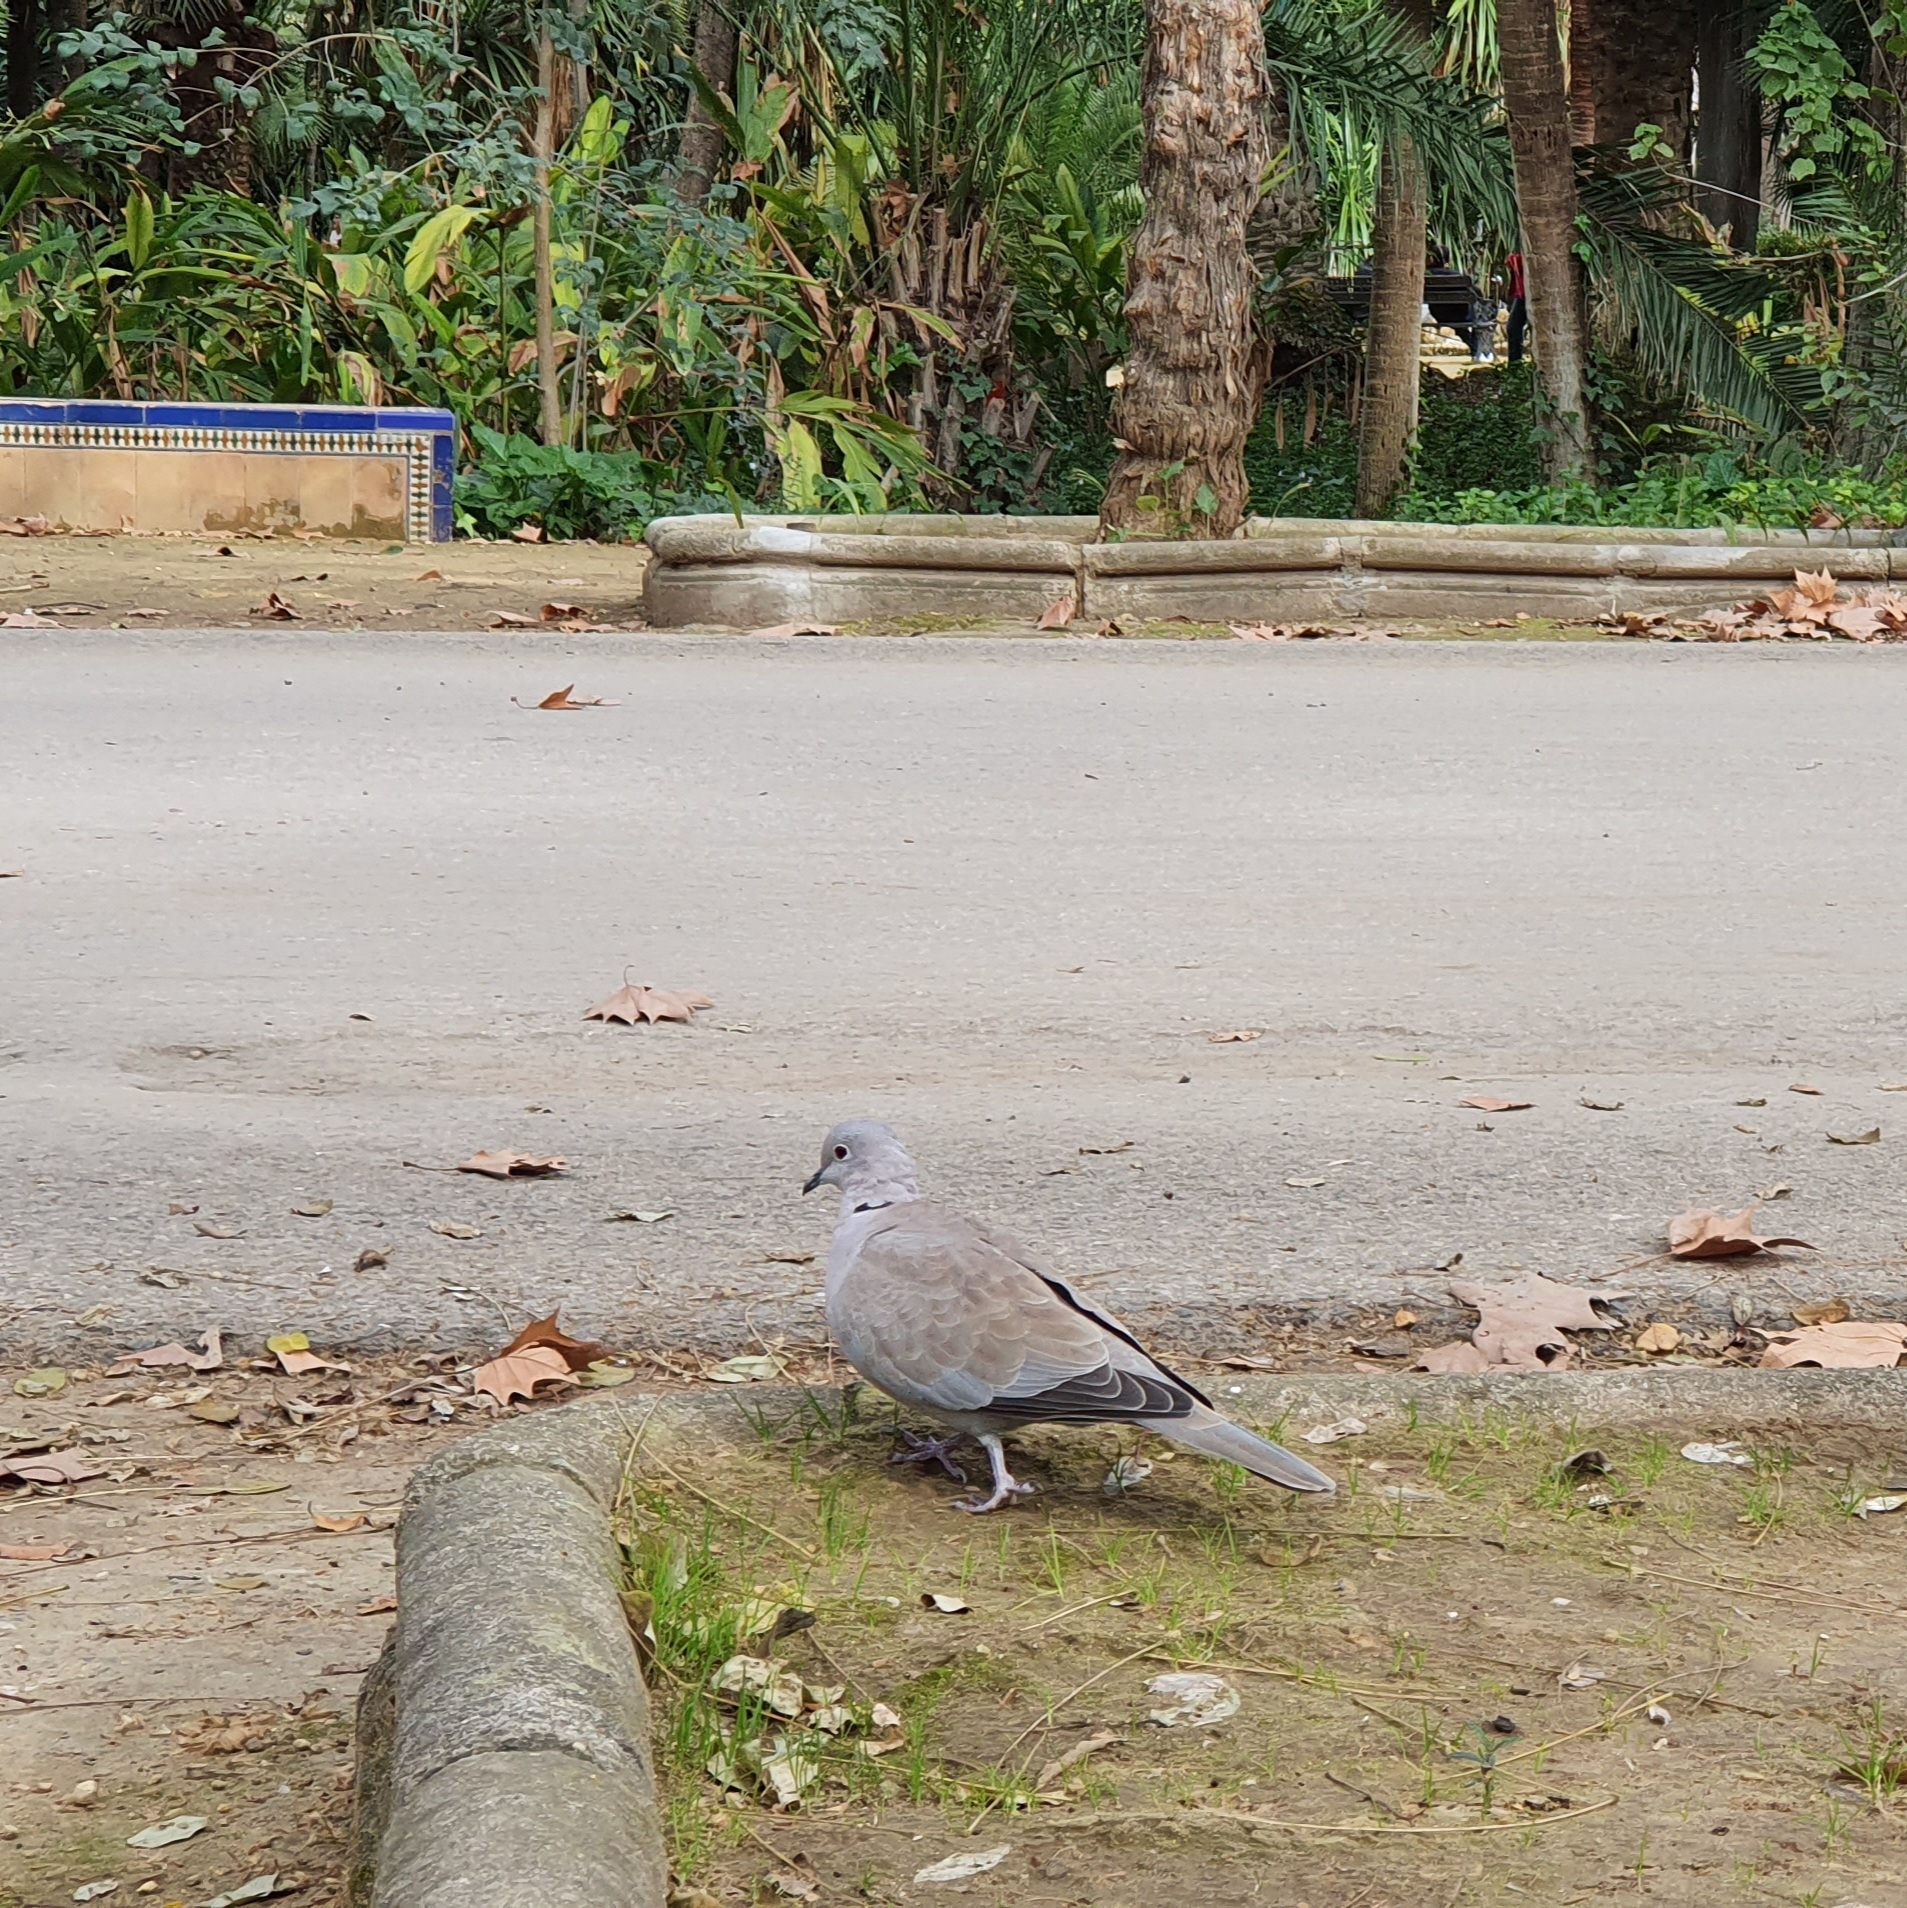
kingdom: Animalia
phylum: Chordata
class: Aves
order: Columbiformes
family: Columbidae
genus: Streptopelia
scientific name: Streptopelia decaocto
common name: Eurasian collared dove
